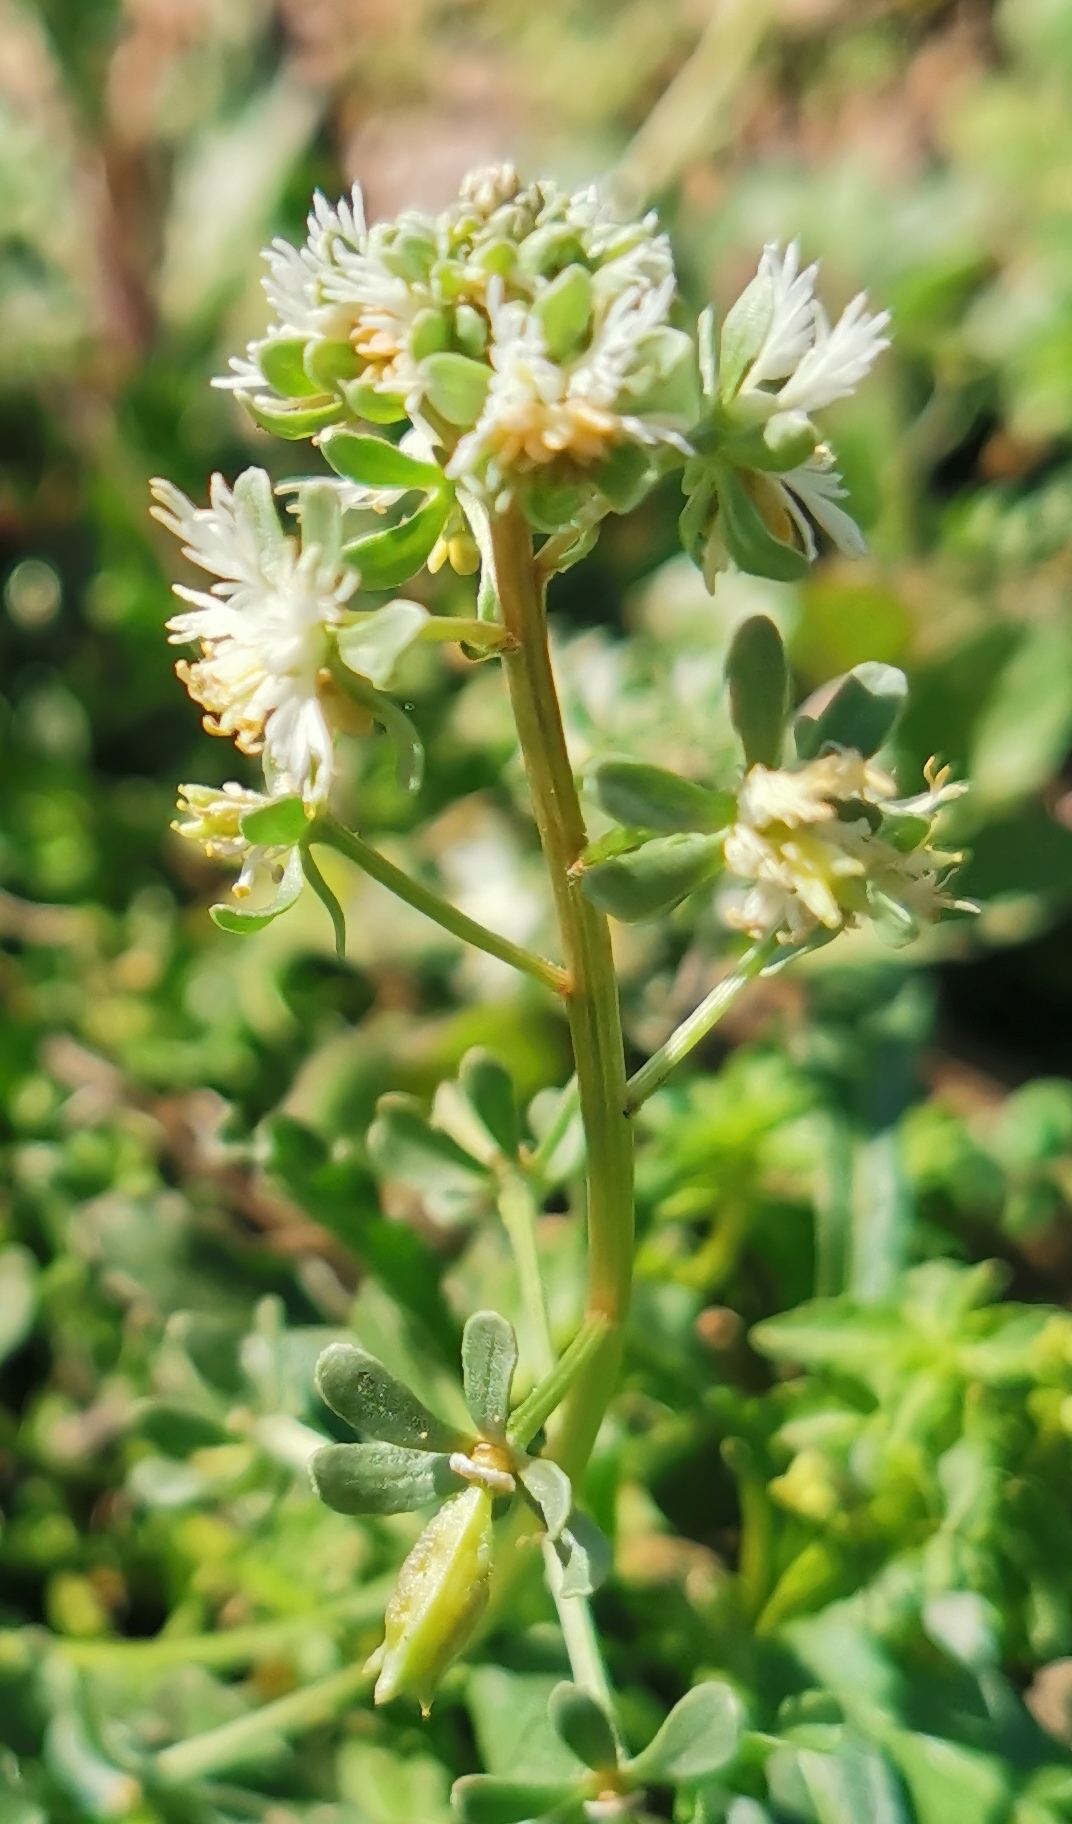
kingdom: Plantae
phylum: Tracheophyta
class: Magnoliopsida
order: Brassicales
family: Resedaceae
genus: Reseda
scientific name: Reseda phyteuma
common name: Corn mignonette
